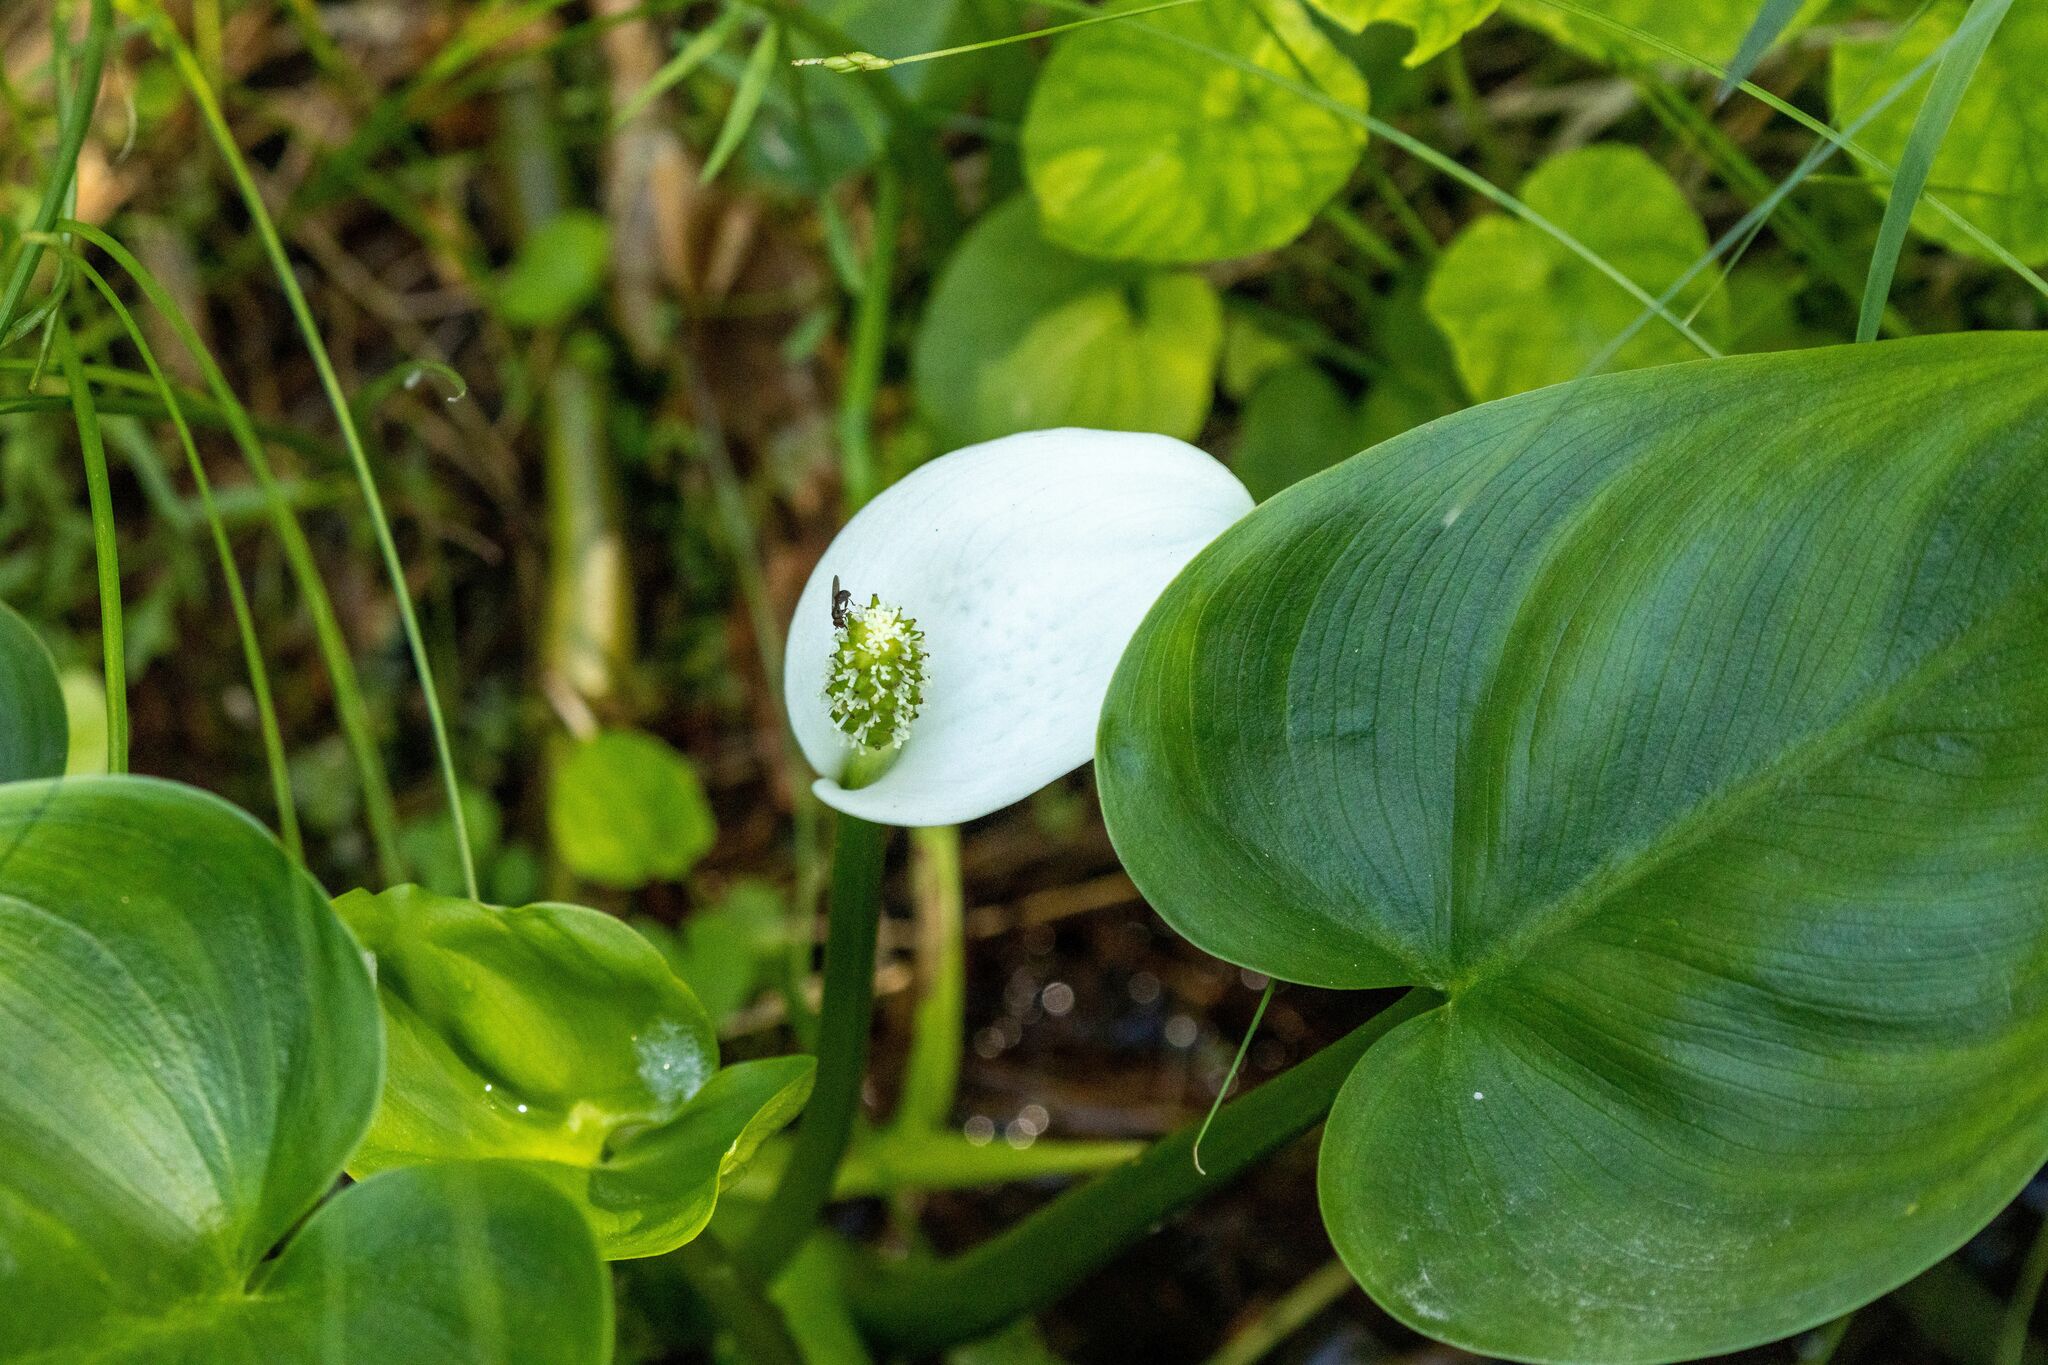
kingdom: Plantae
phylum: Tracheophyta
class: Liliopsida
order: Alismatales
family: Araceae
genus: Calla
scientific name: Calla palustris
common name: Bog arum
